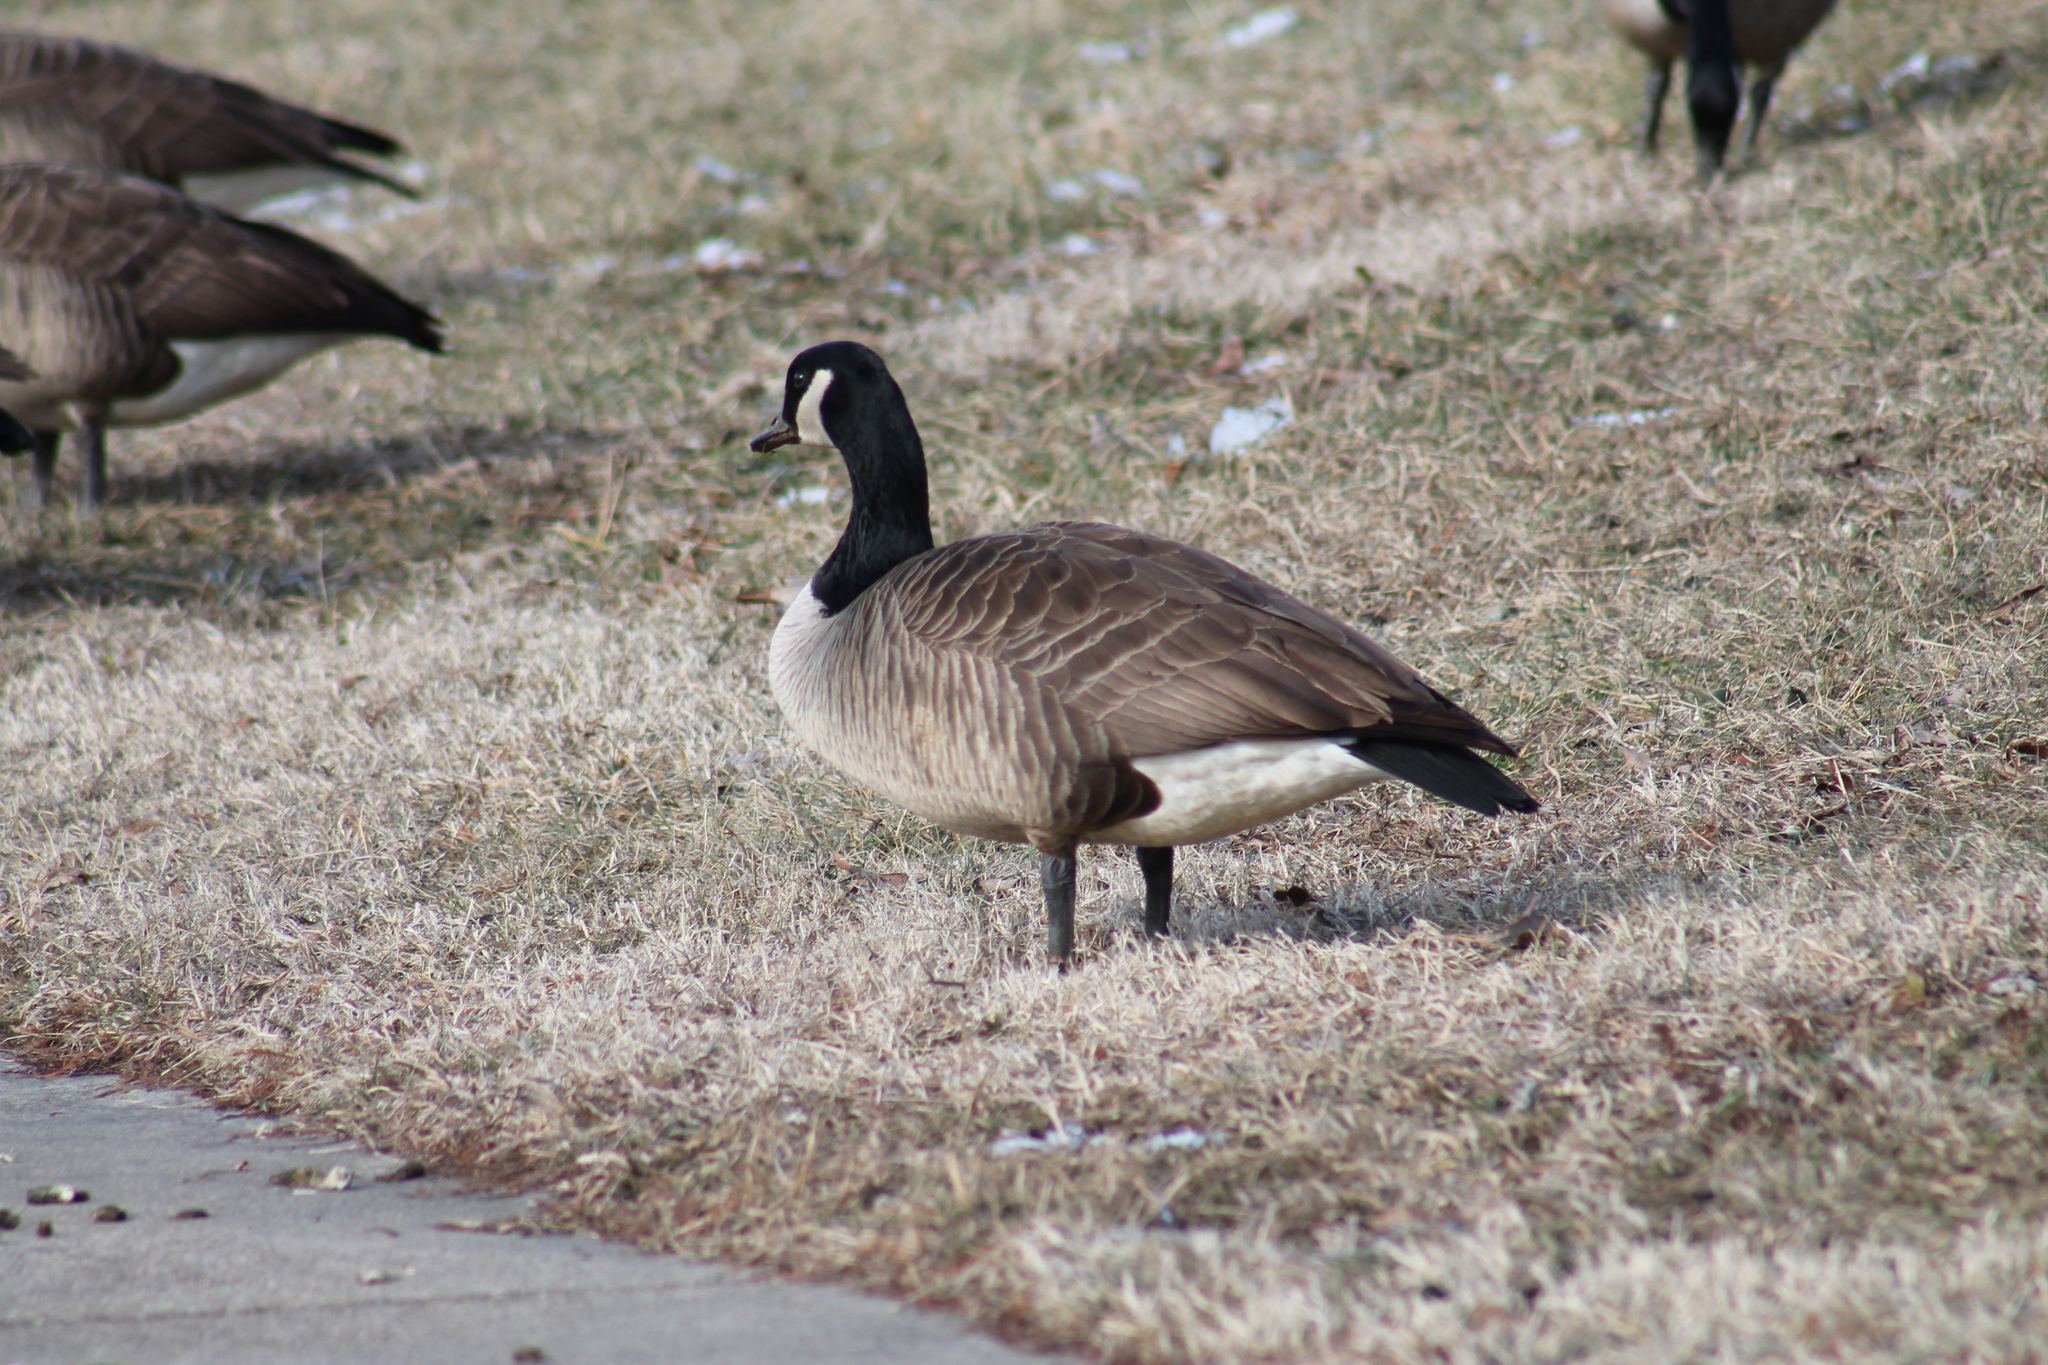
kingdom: Animalia
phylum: Chordata
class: Aves
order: Anseriformes
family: Anatidae
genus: Branta
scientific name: Branta canadensis
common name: Canada goose
